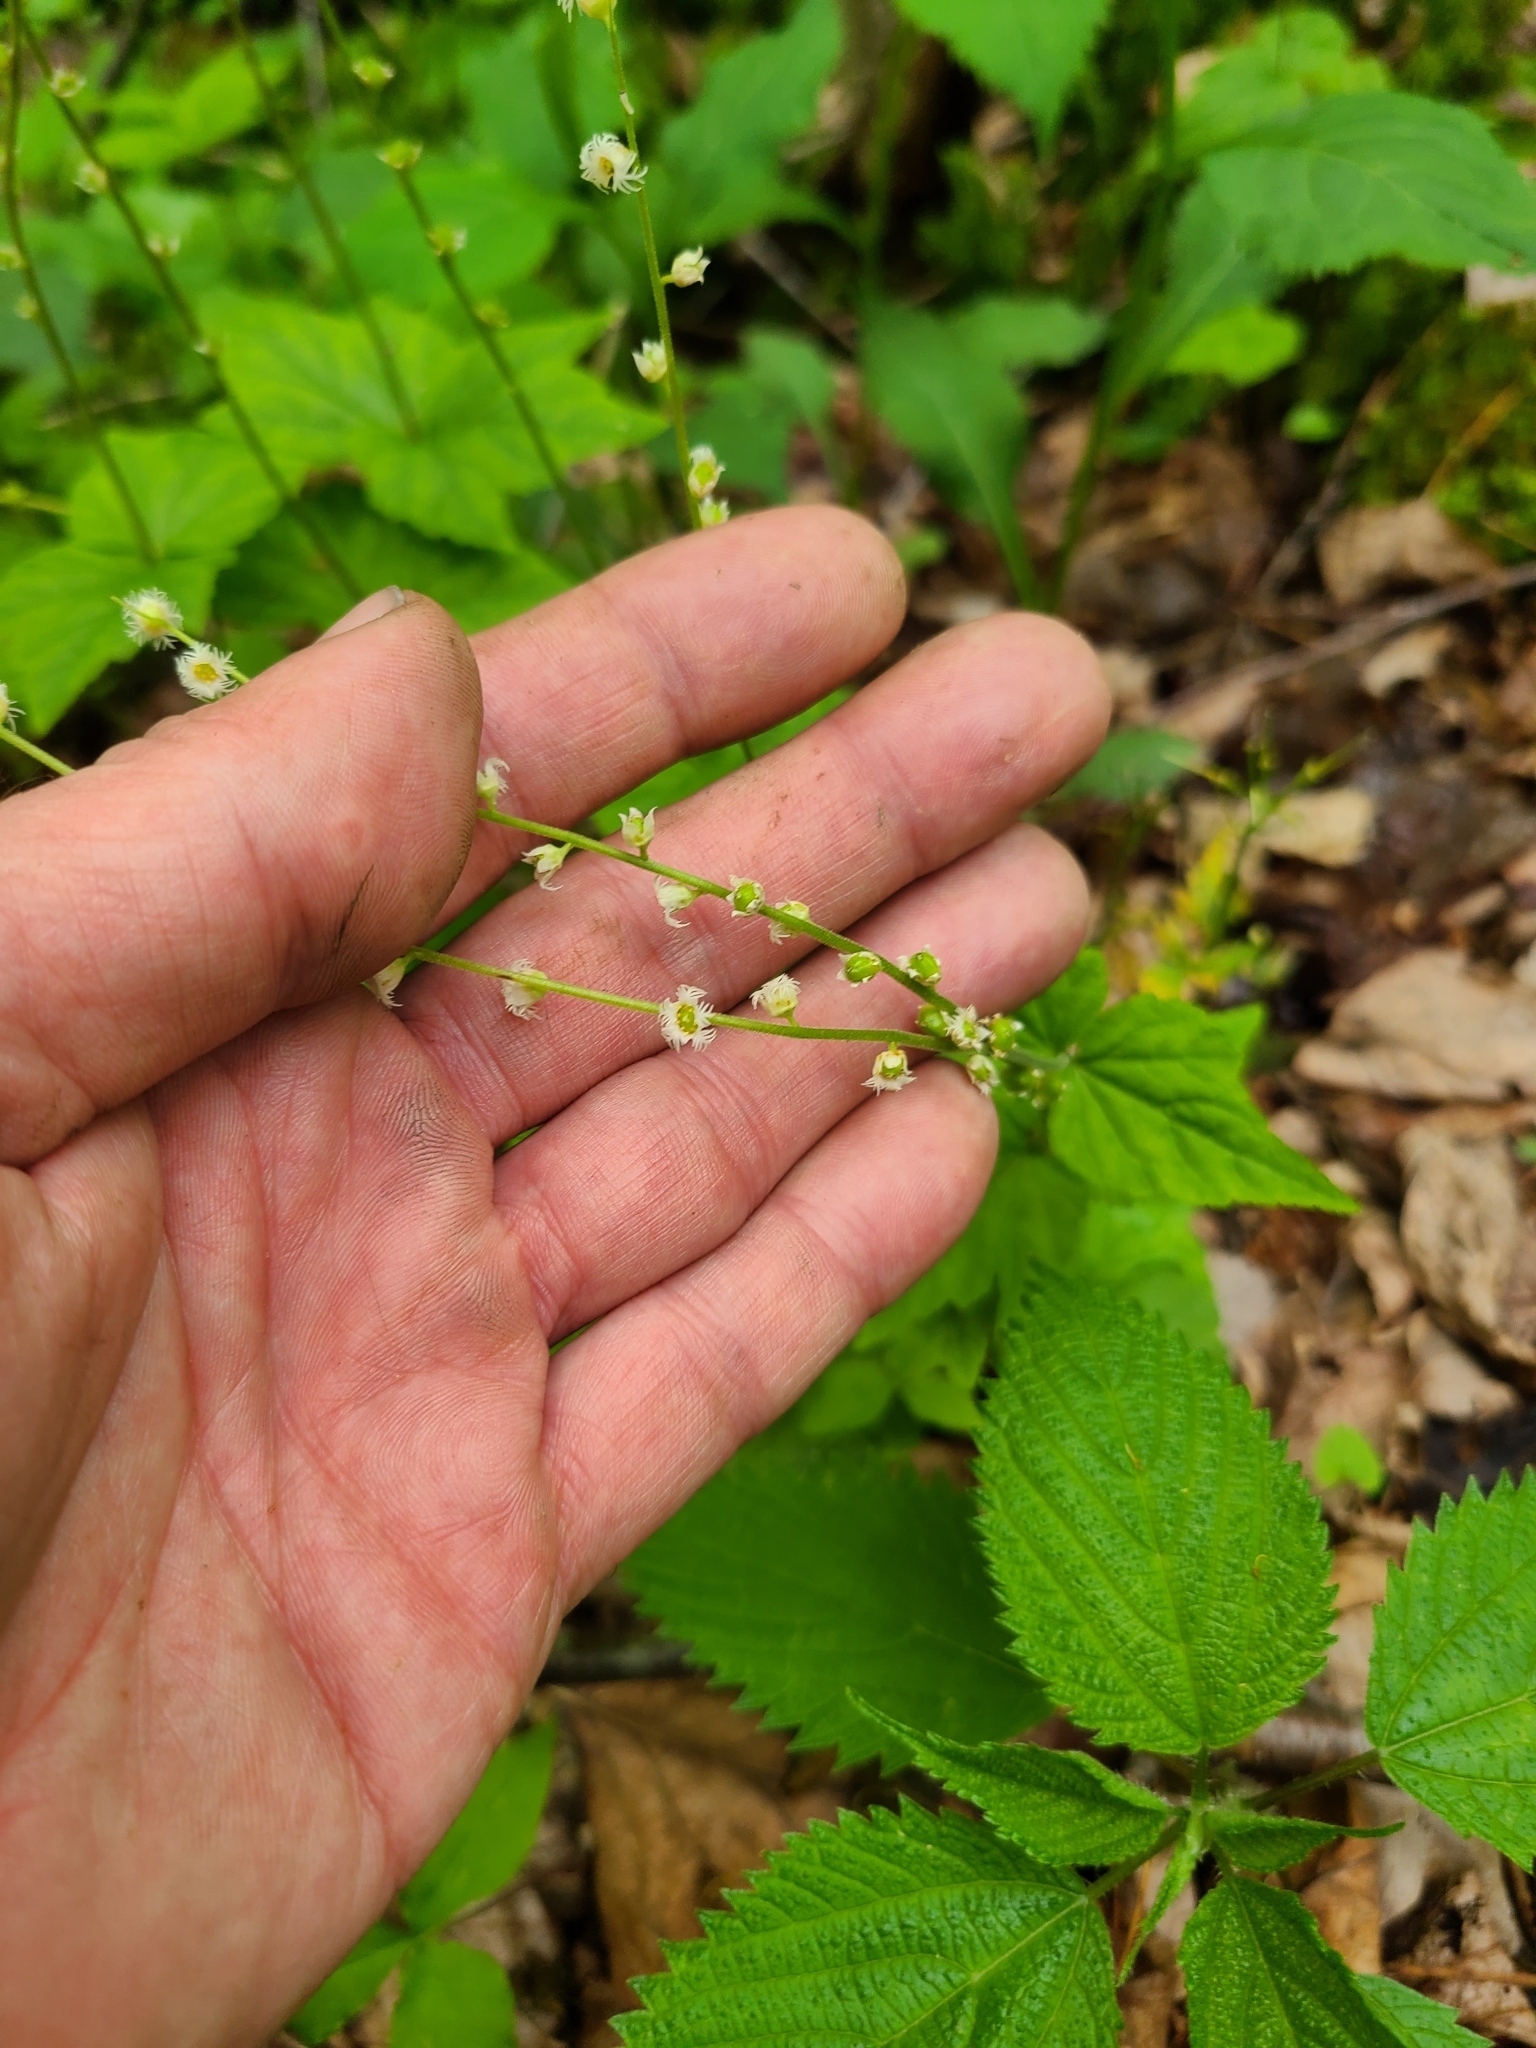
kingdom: Plantae
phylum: Tracheophyta
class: Magnoliopsida
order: Saxifragales
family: Saxifragaceae
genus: Mitella
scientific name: Mitella diphylla
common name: Coolwort
